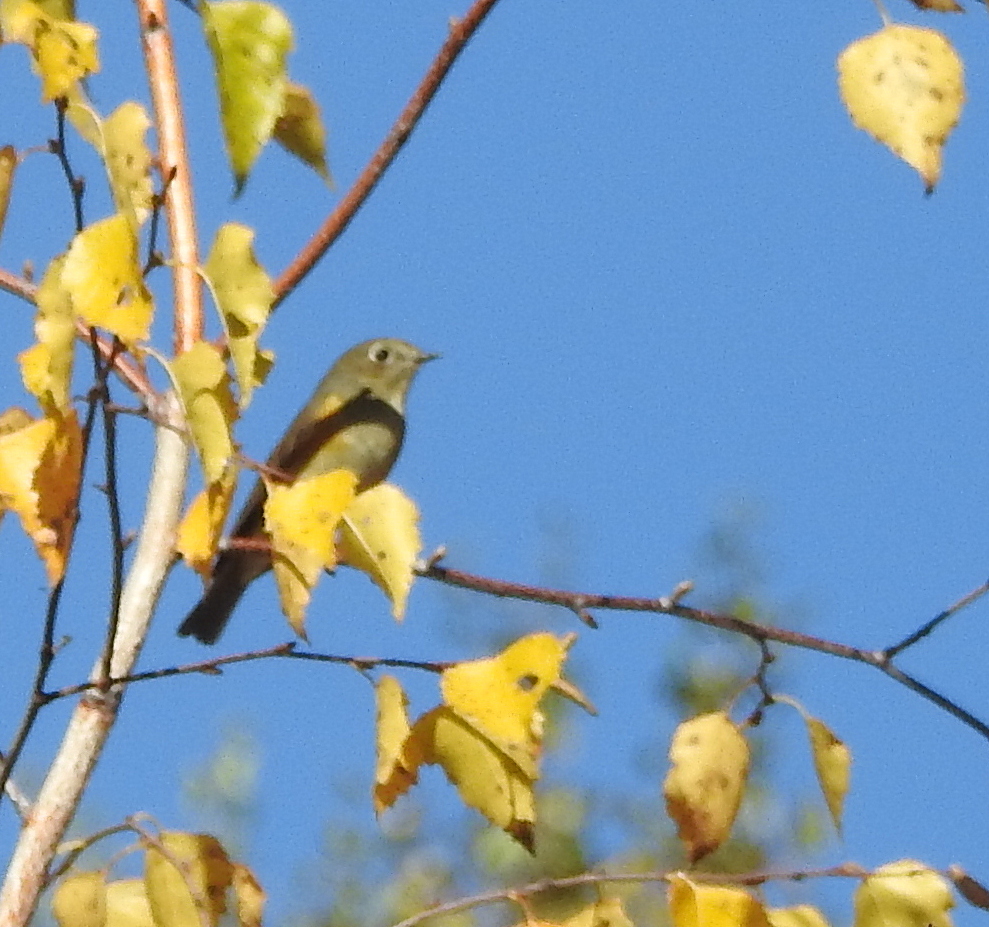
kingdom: Animalia
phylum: Chordata
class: Aves
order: Passeriformes
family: Muscicapidae
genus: Tarsiger
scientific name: Tarsiger cyanurus
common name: Red-flanked bluetail
